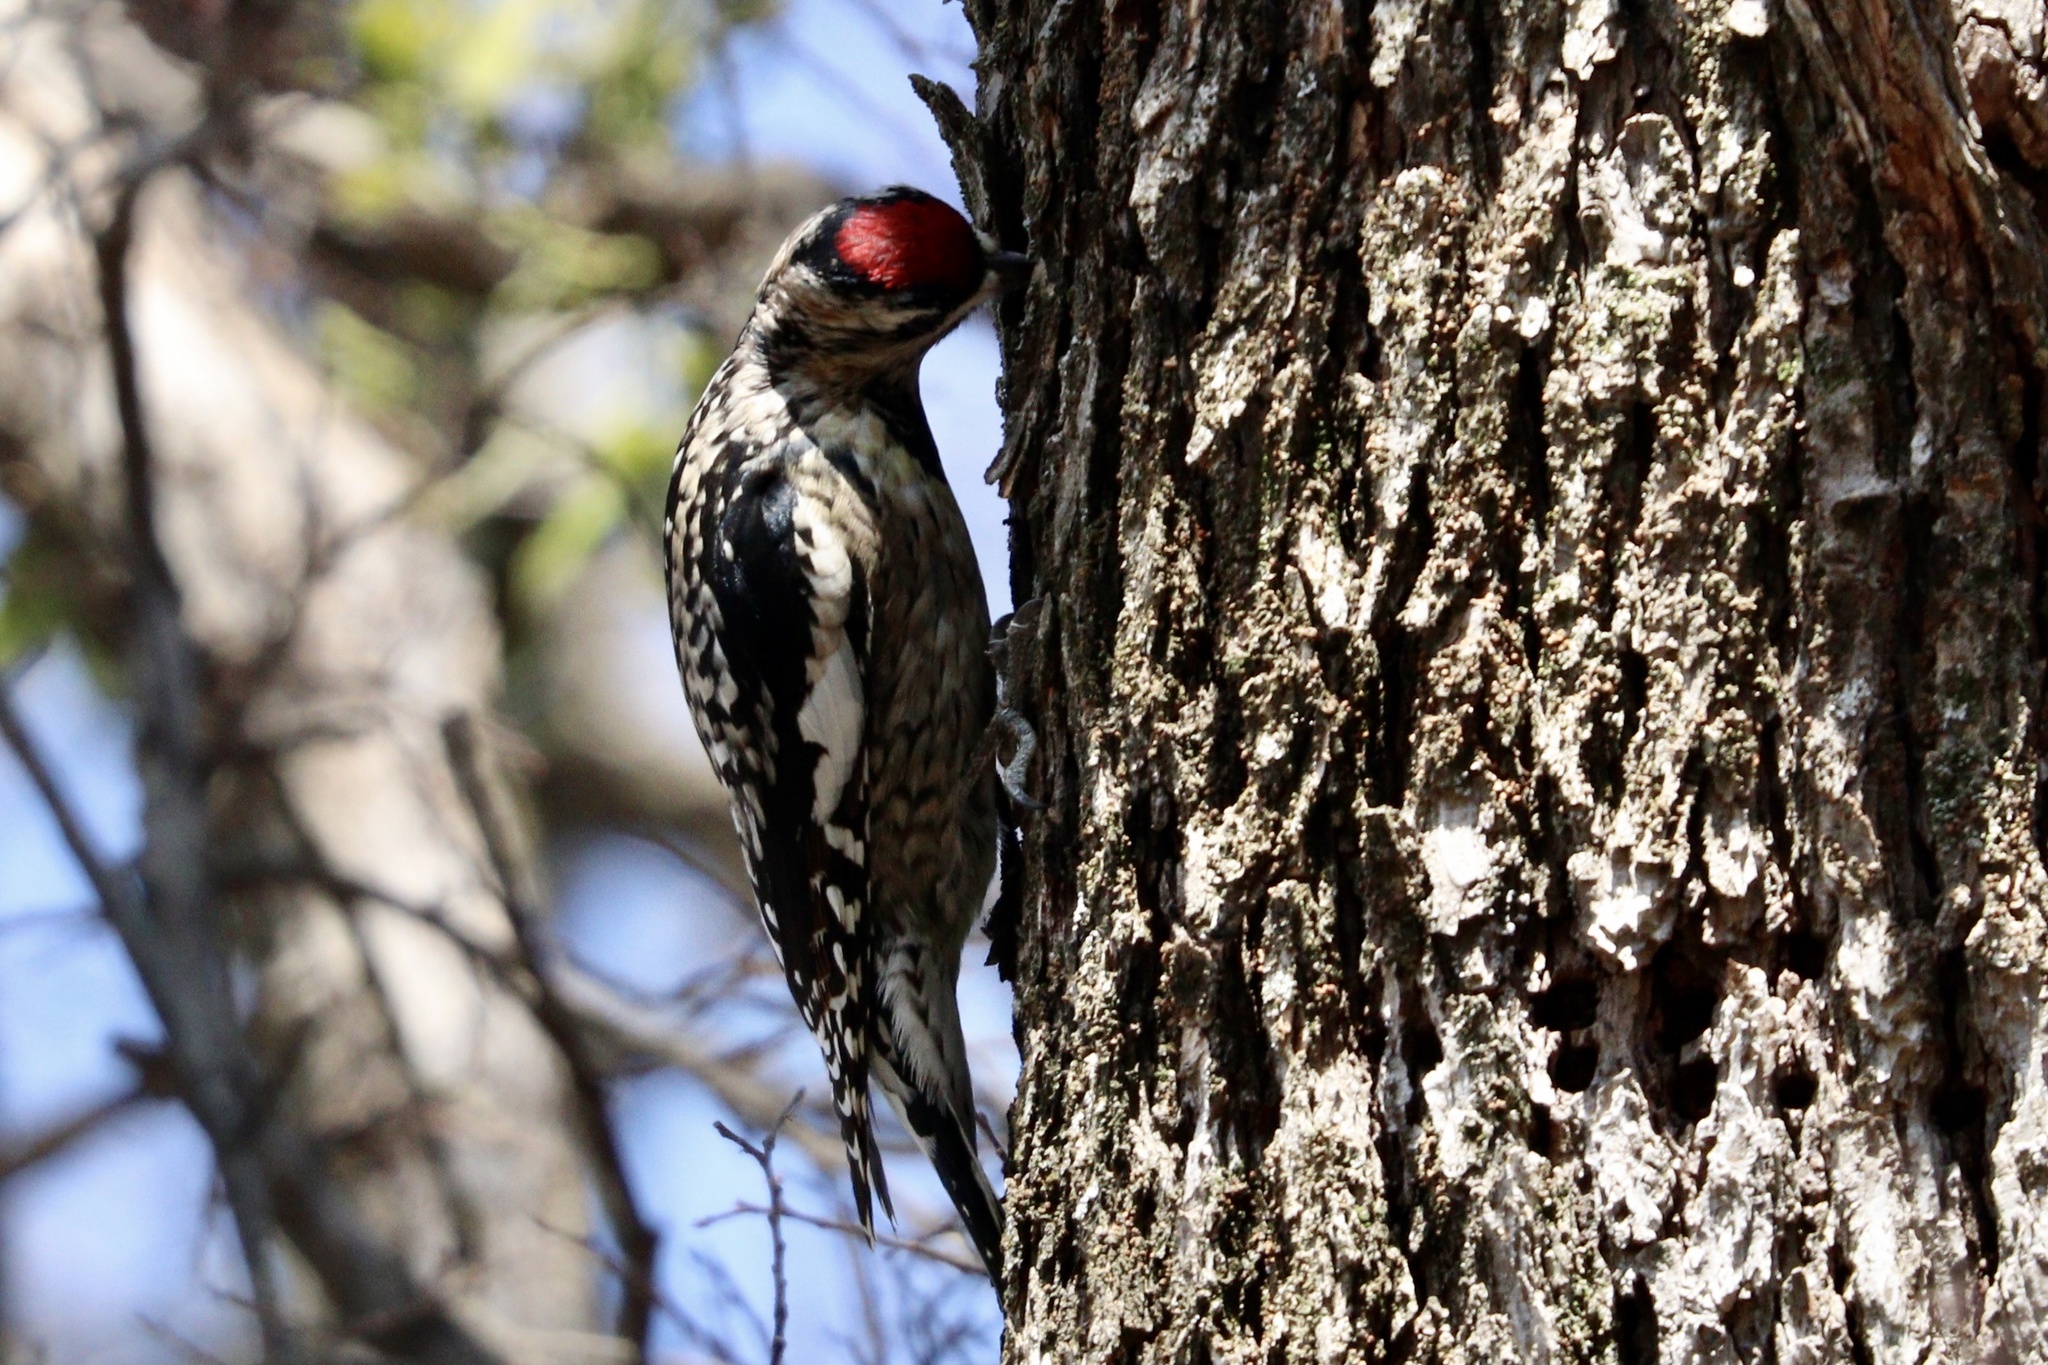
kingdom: Animalia
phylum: Chordata
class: Aves
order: Piciformes
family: Picidae
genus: Sphyrapicus
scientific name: Sphyrapicus varius
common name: Yellow-bellied sapsucker
